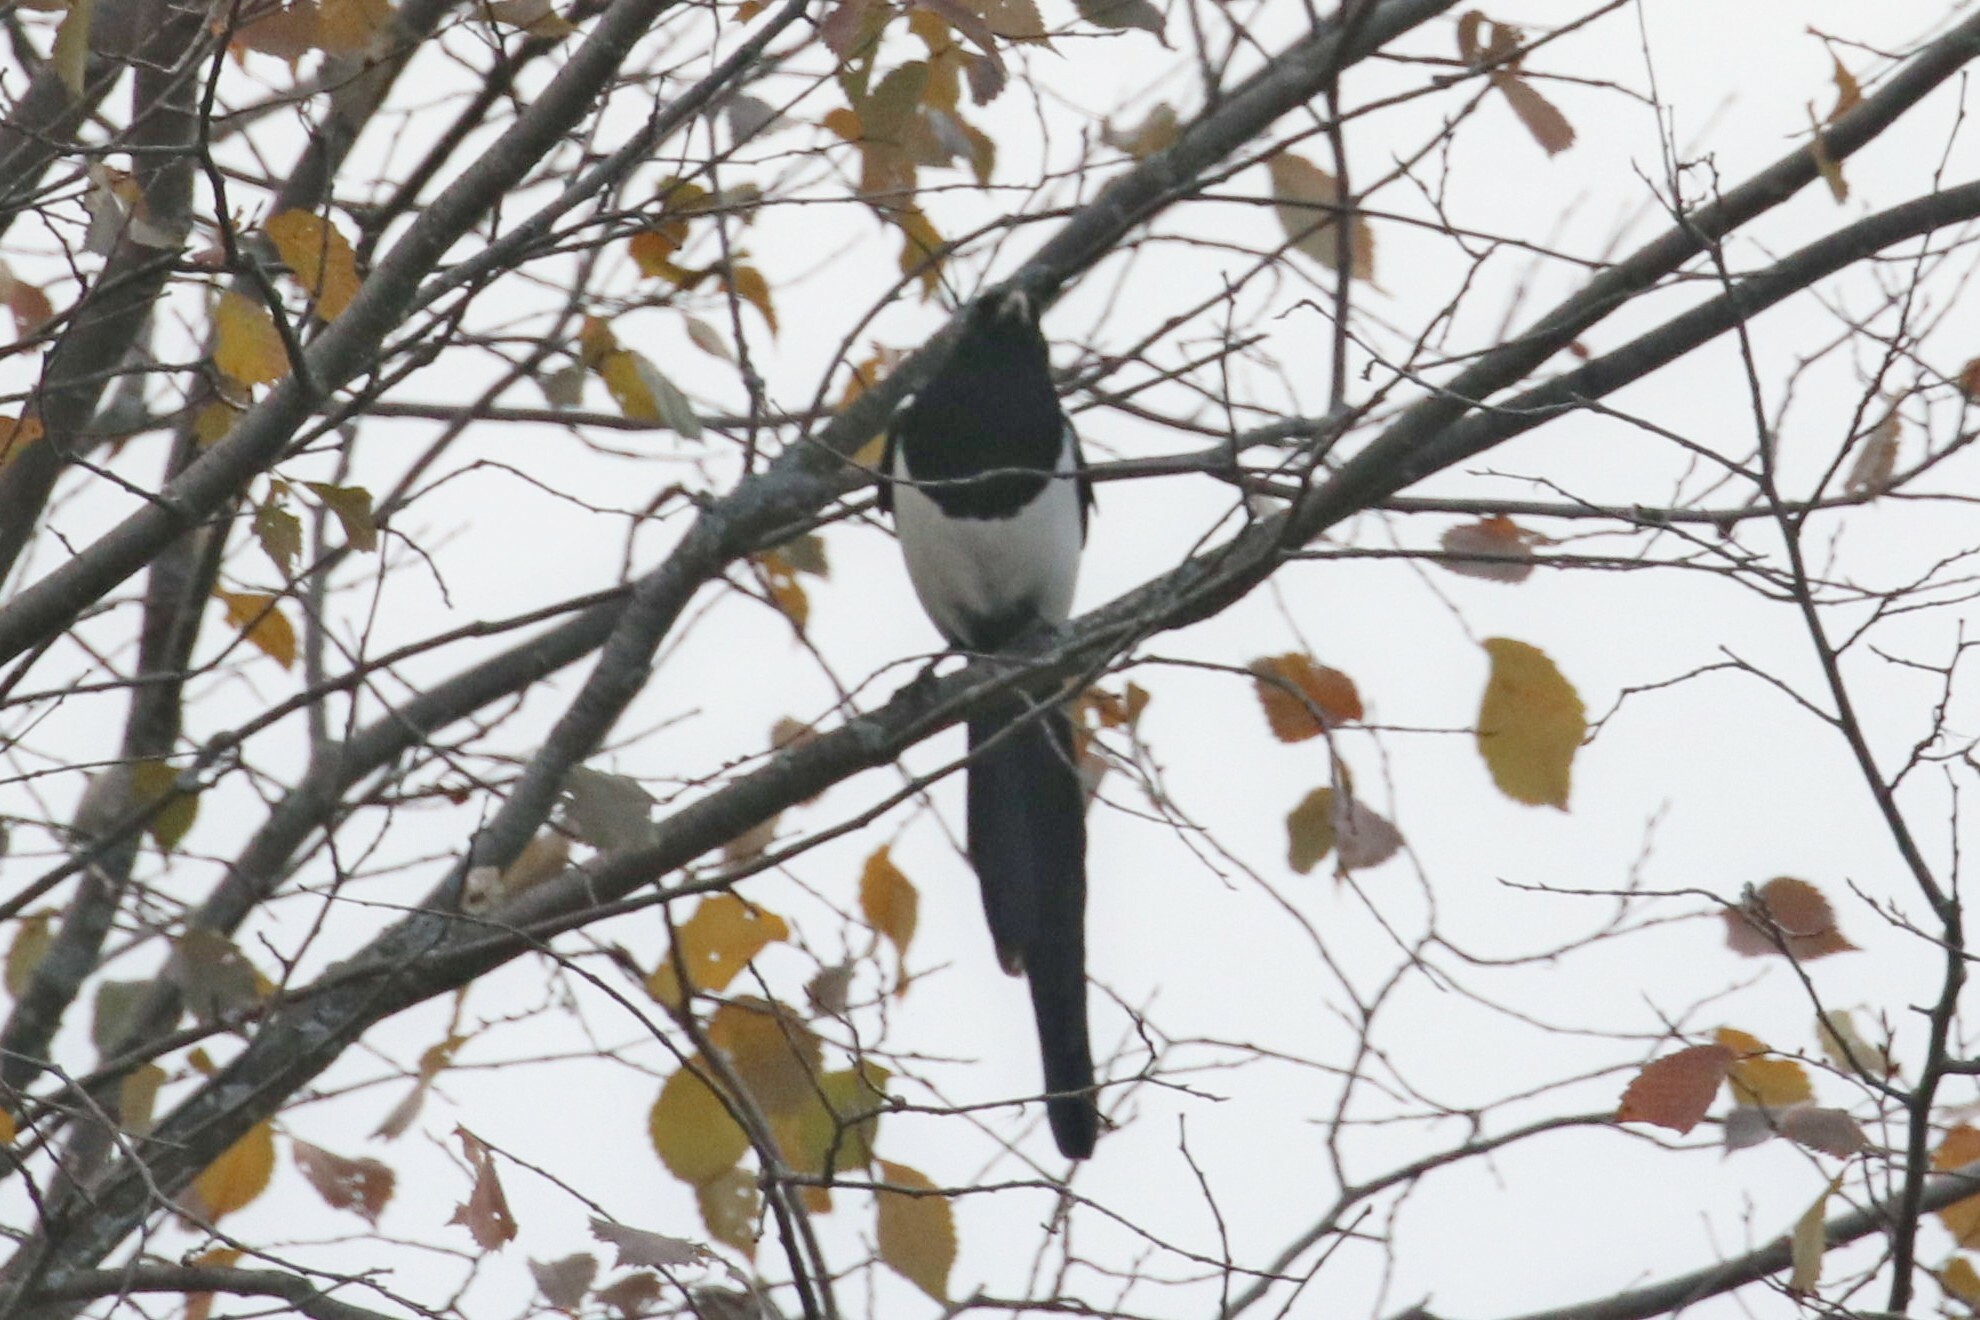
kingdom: Animalia
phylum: Chordata
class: Aves
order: Passeriformes
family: Corvidae
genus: Pica
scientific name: Pica pica
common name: Eurasian magpie
